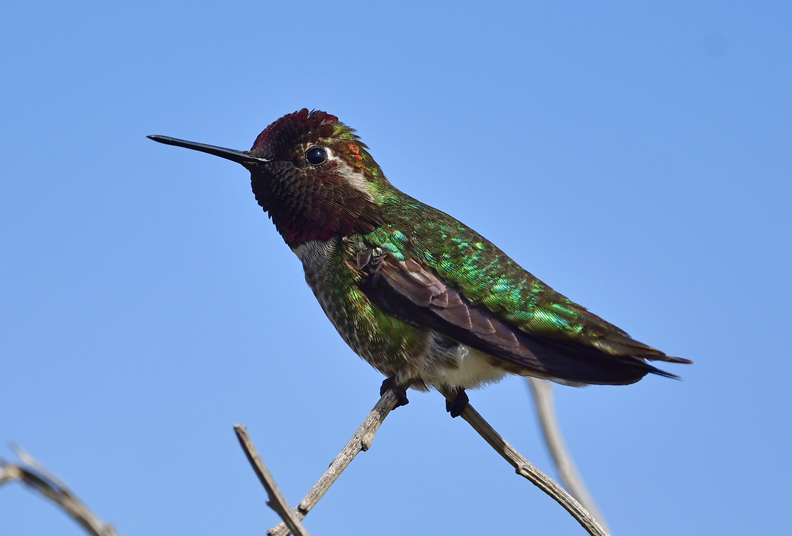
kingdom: Animalia
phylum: Chordata
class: Aves
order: Apodiformes
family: Trochilidae
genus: Calypte
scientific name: Calypte anna
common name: Anna's hummingbird
